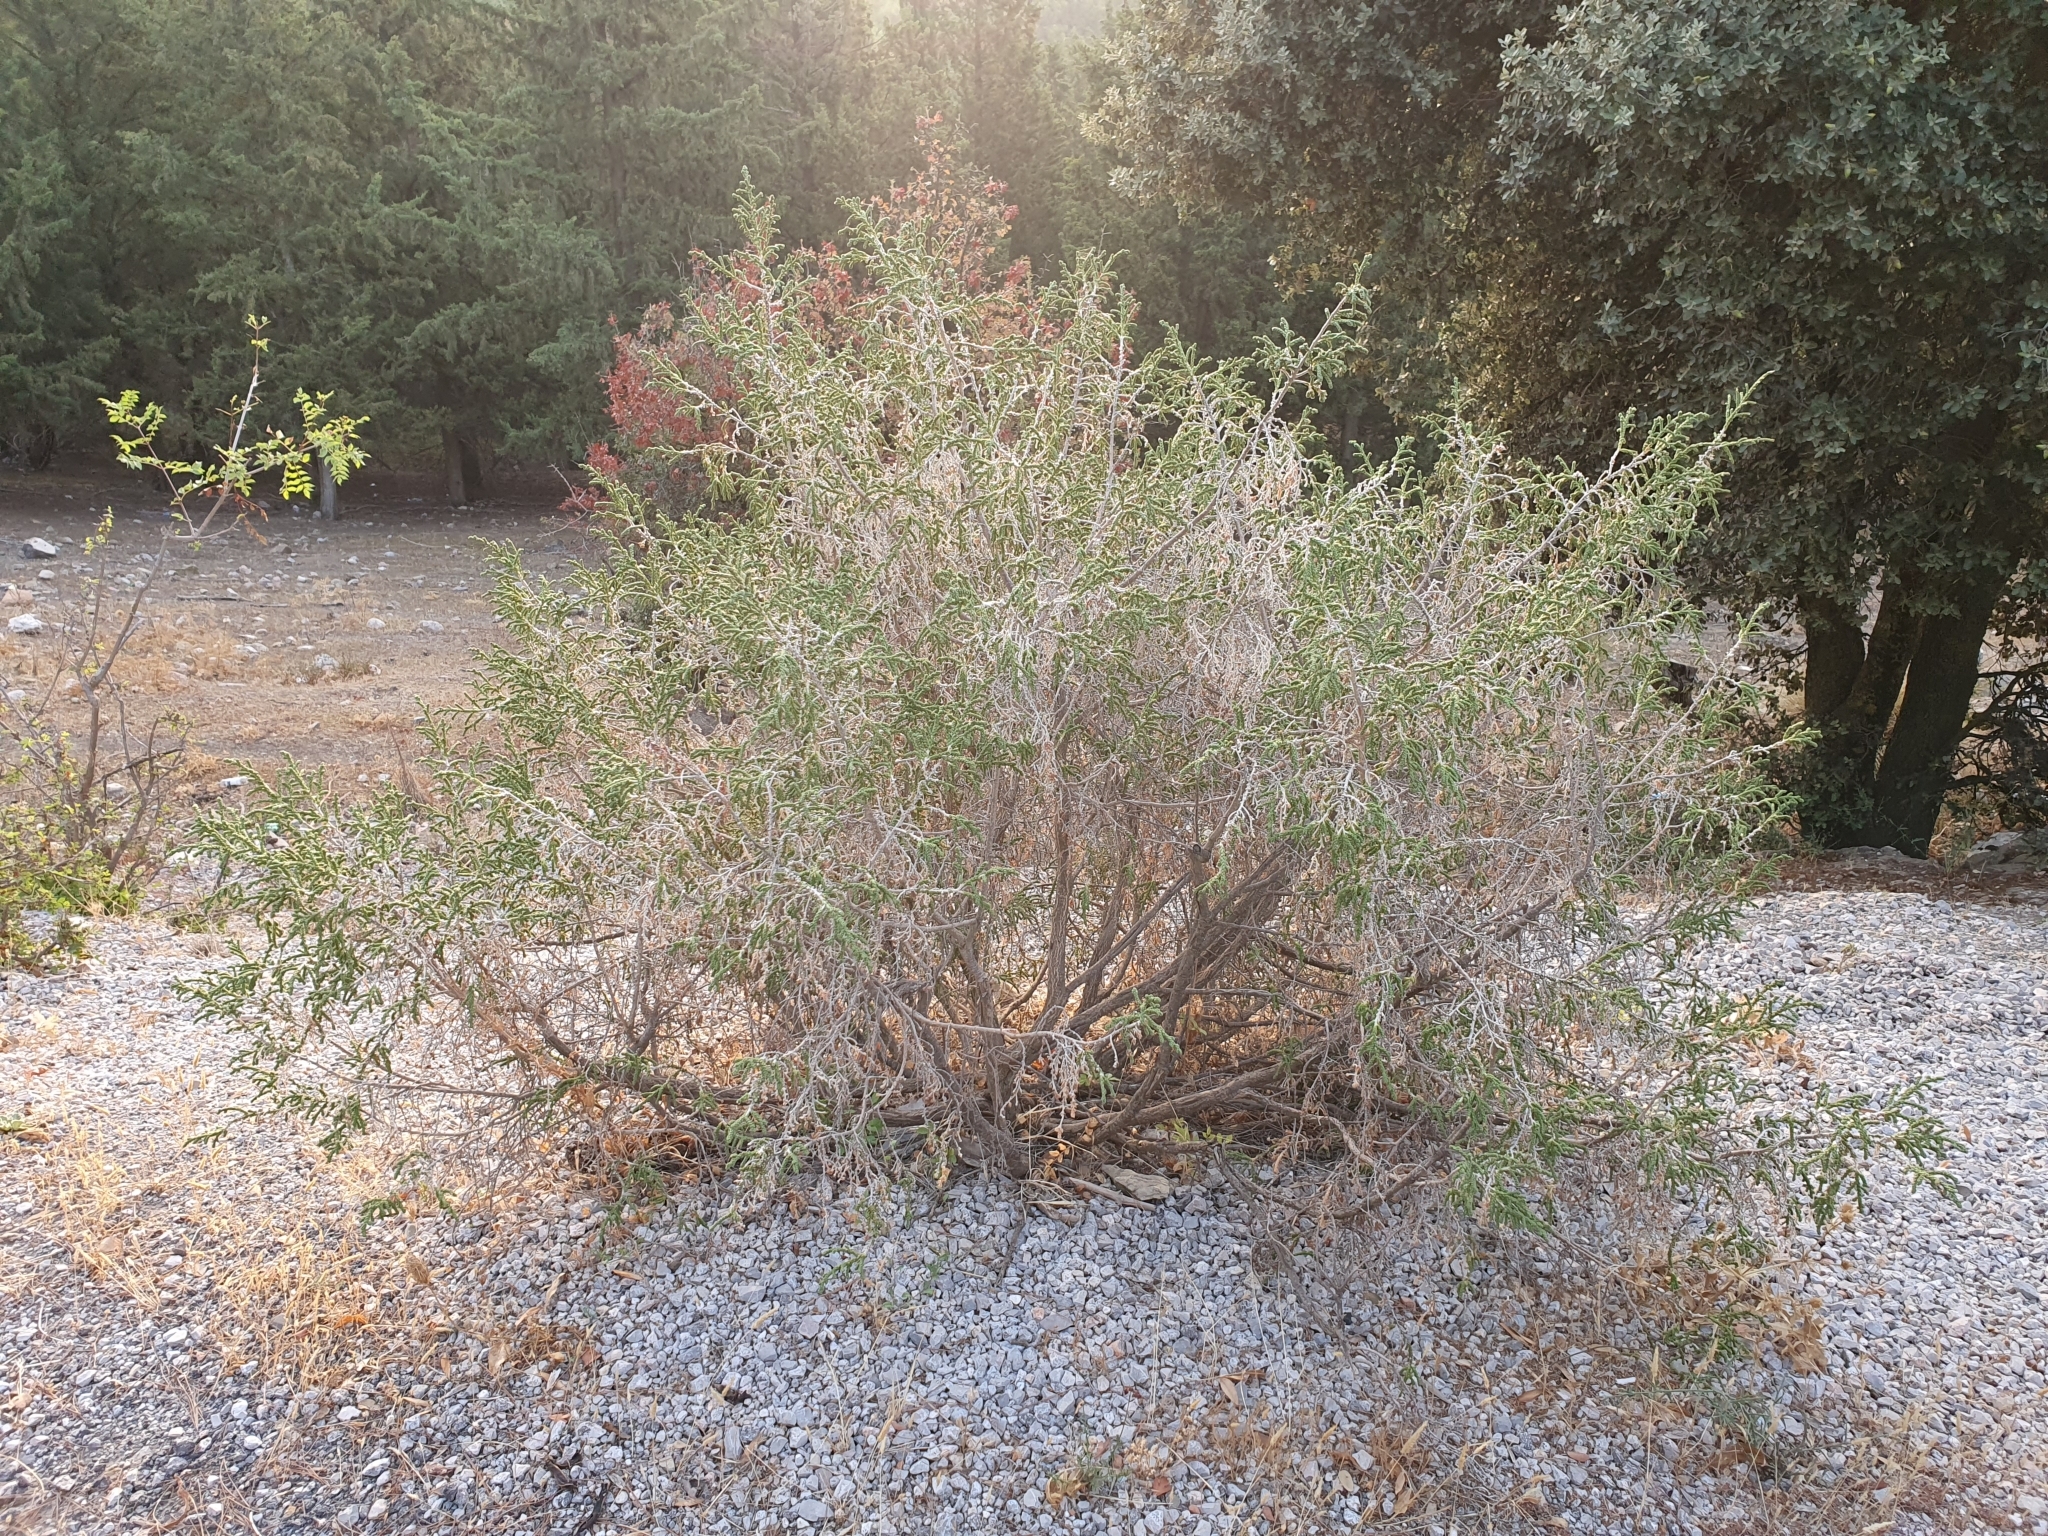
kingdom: Plantae
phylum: Tracheophyta
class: Magnoliopsida
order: Malvales
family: Thymelaeaceae
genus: Thymelaea
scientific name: Thymelaea hirsuta
